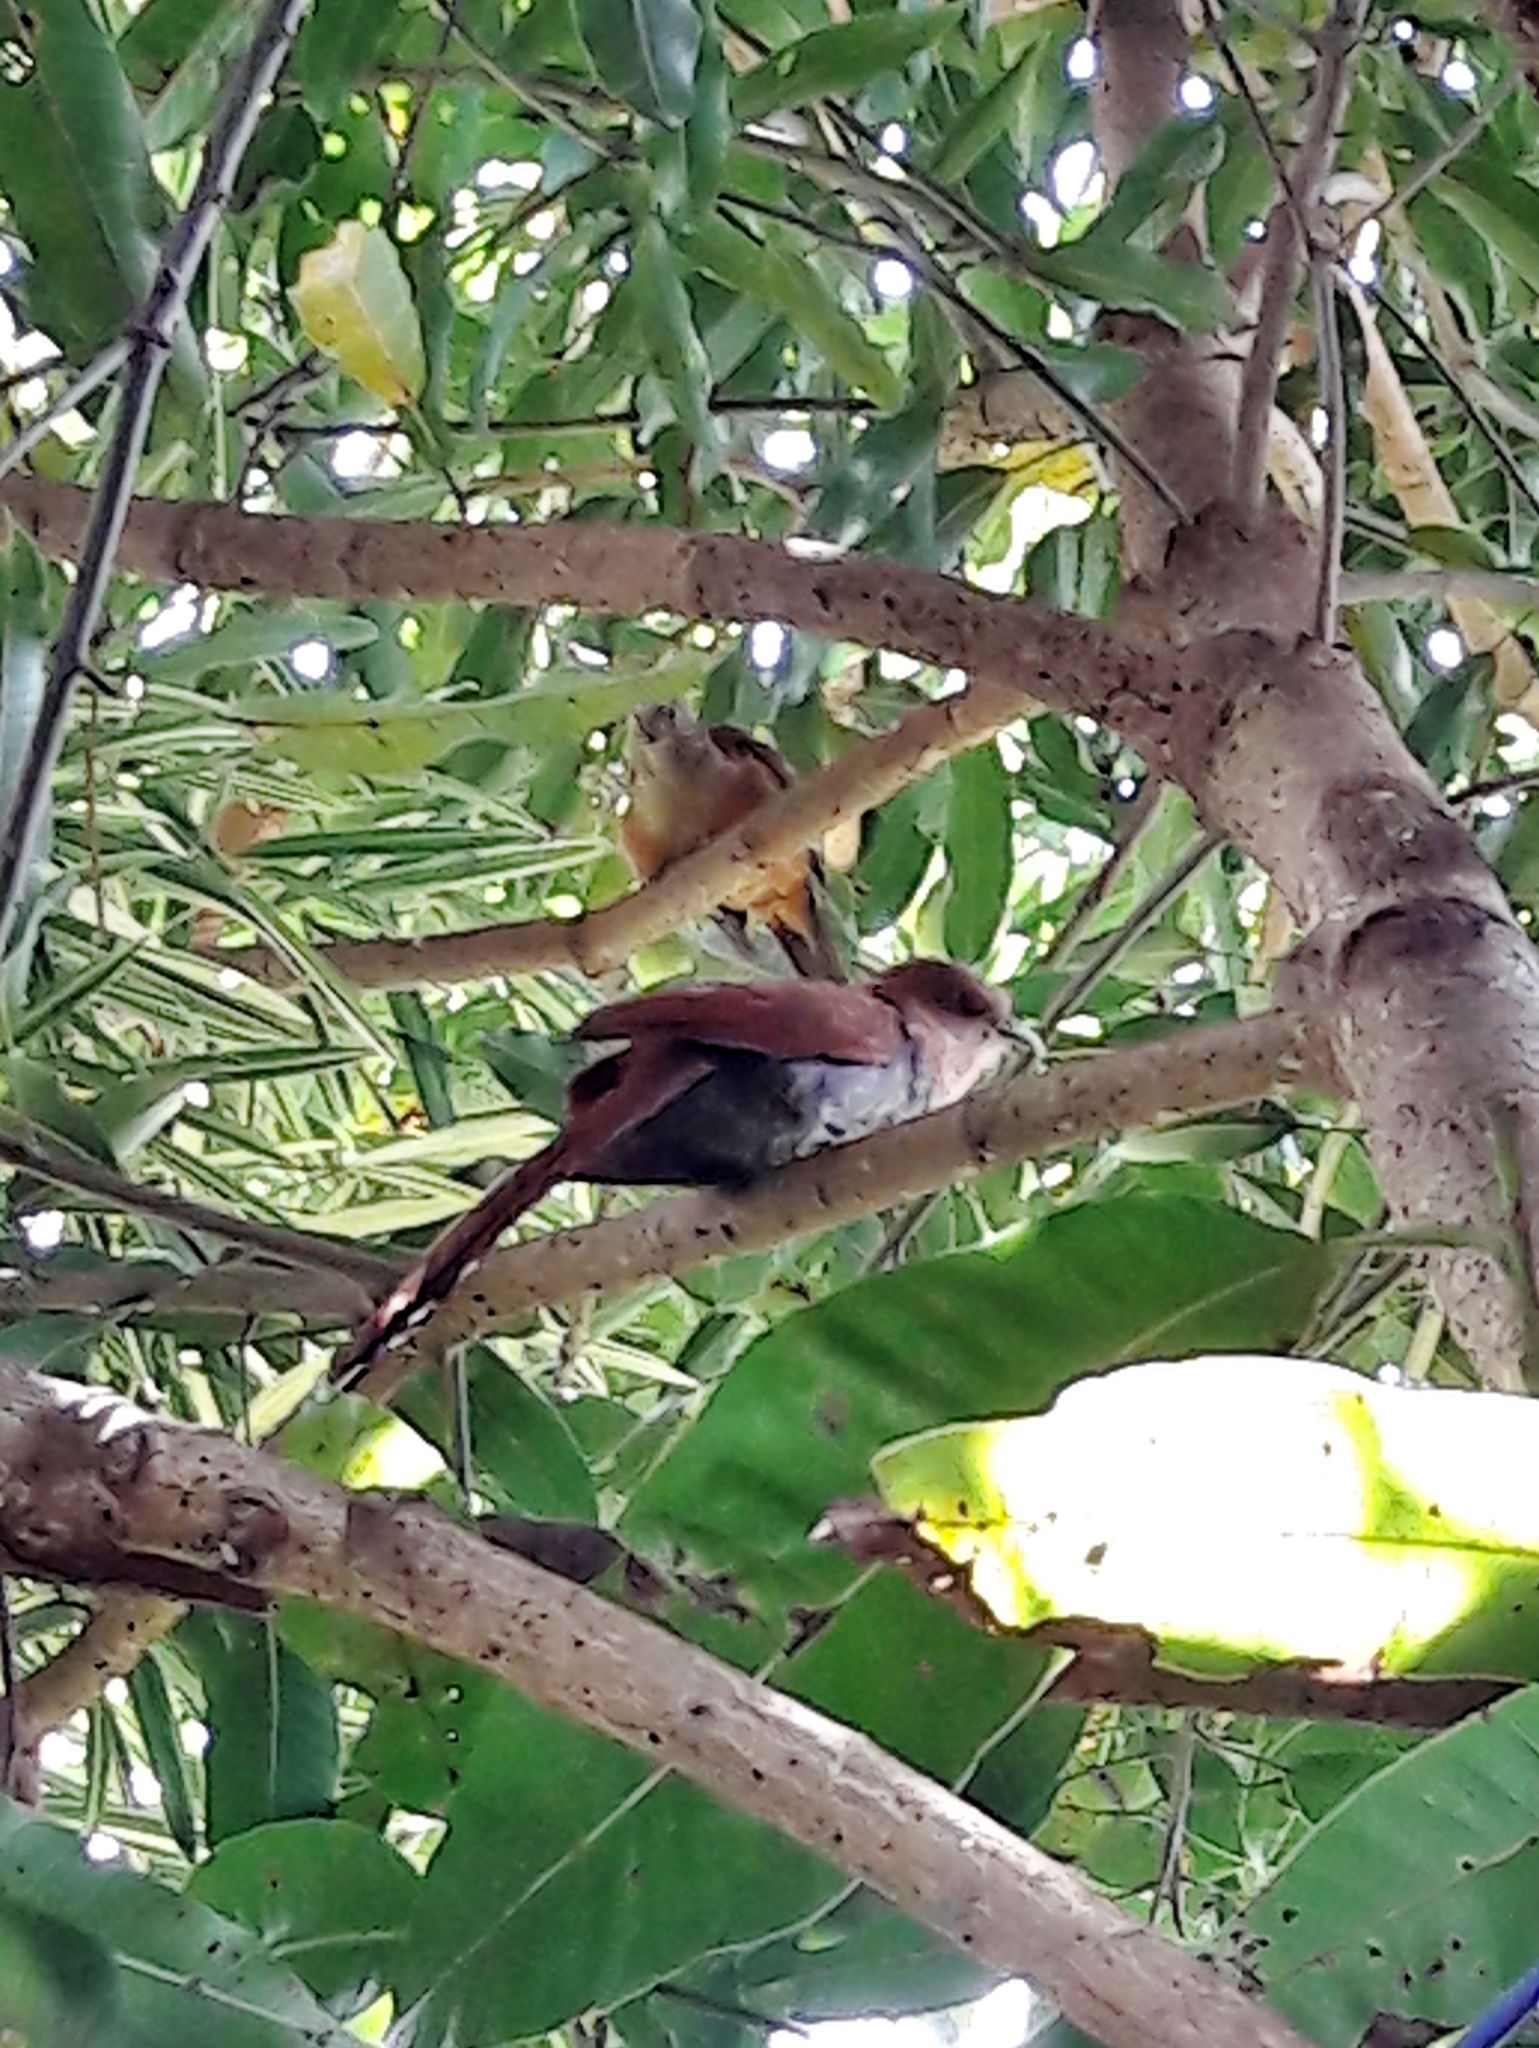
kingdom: Animalia
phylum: Chordata
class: Aves
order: Passeriformes
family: Turdidae
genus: Turdus
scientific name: Turdus rufiventris
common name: Rufous-bellied thrush
